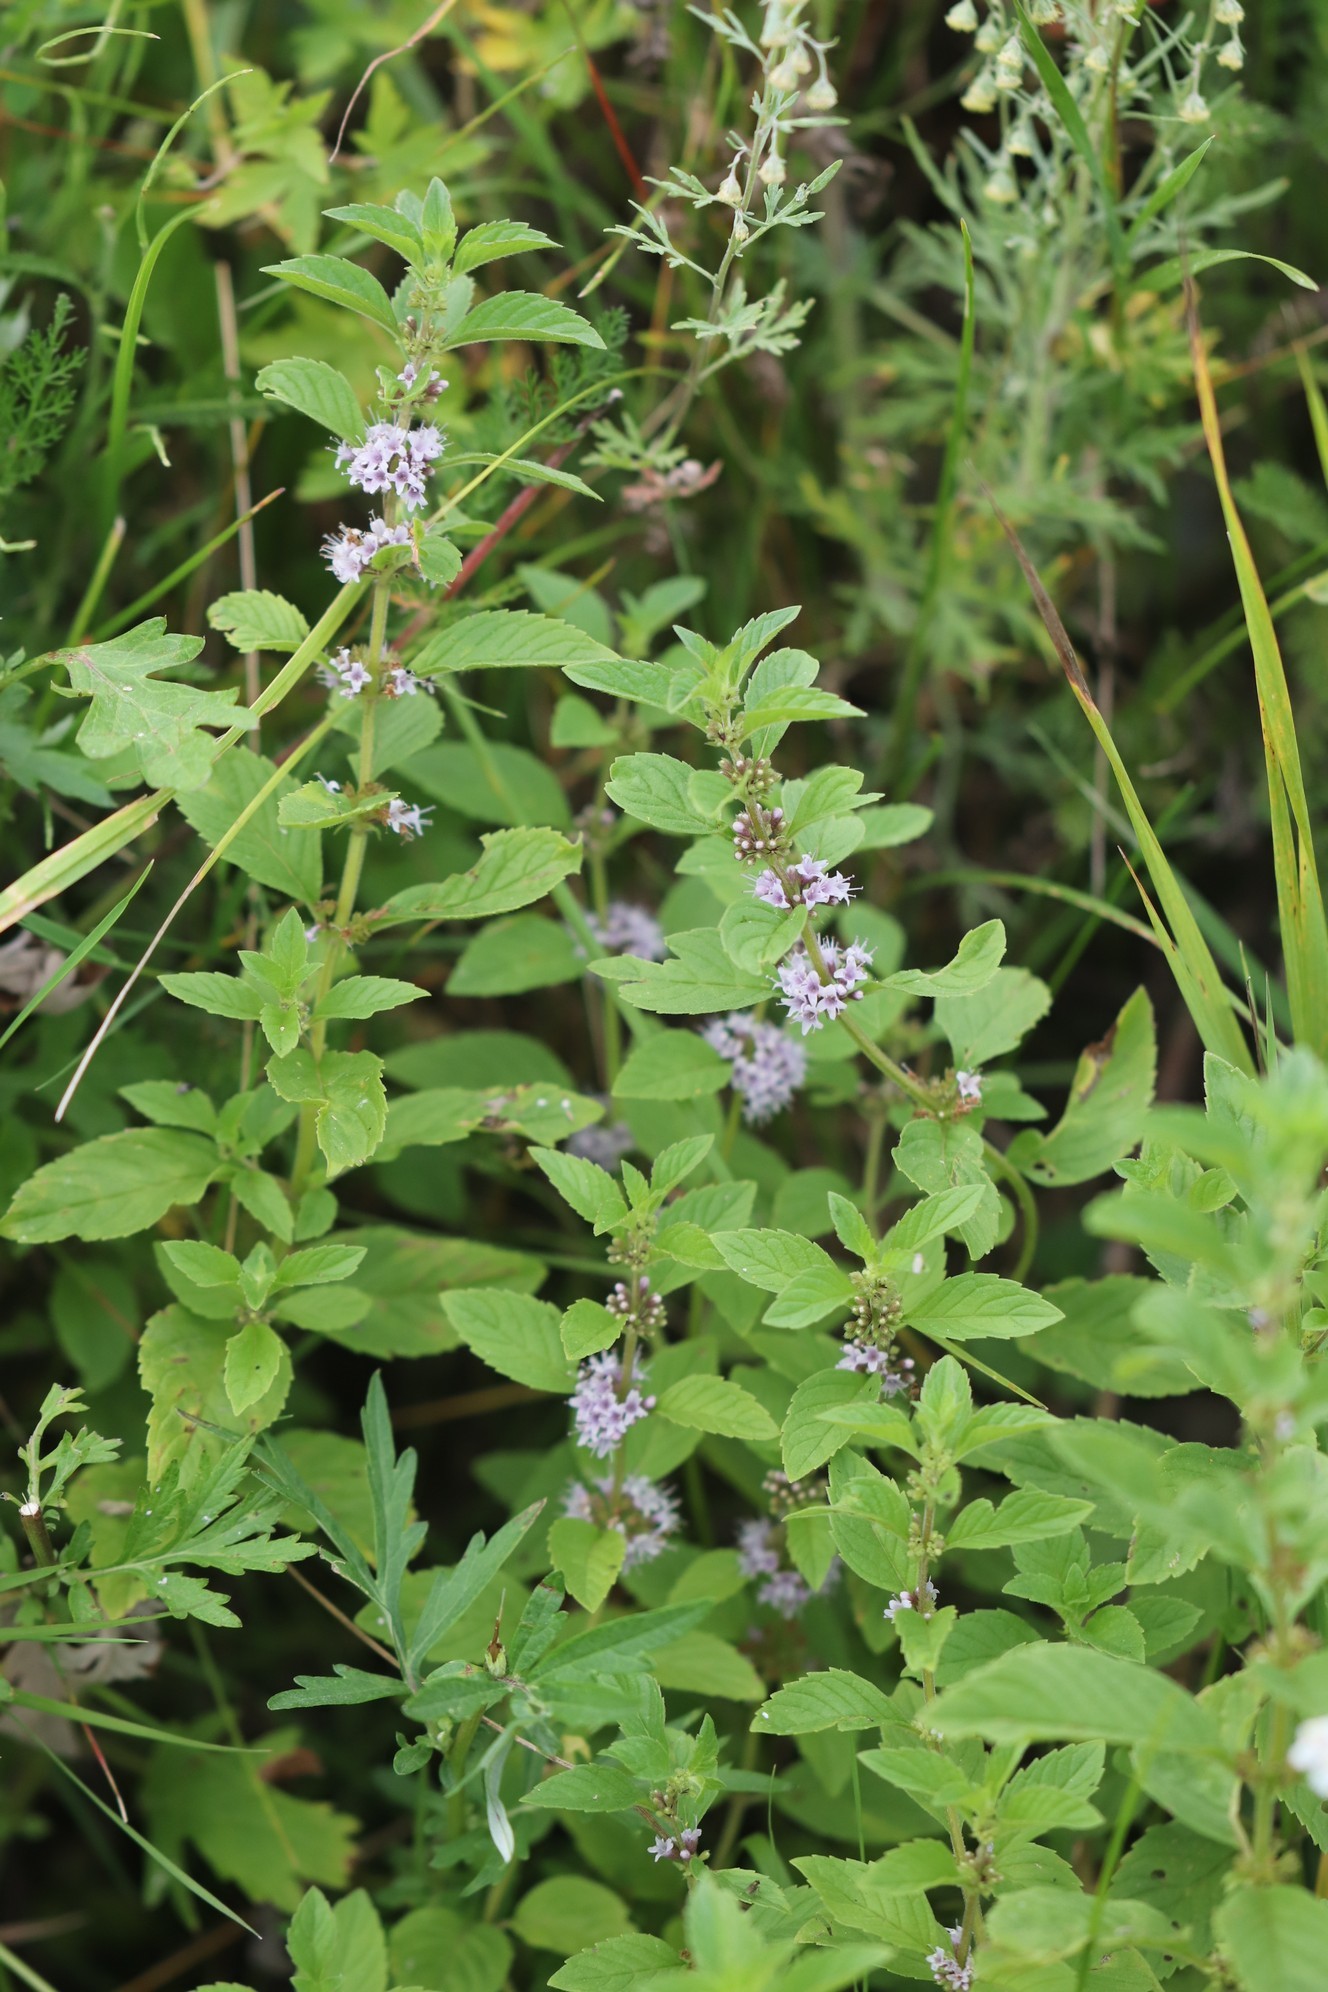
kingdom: Plantae
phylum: Tracheophyta
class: Magnoliopsida
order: Lamiales
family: Lamiaceae
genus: Mentha
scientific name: Mentha arvensis
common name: Corn mint
